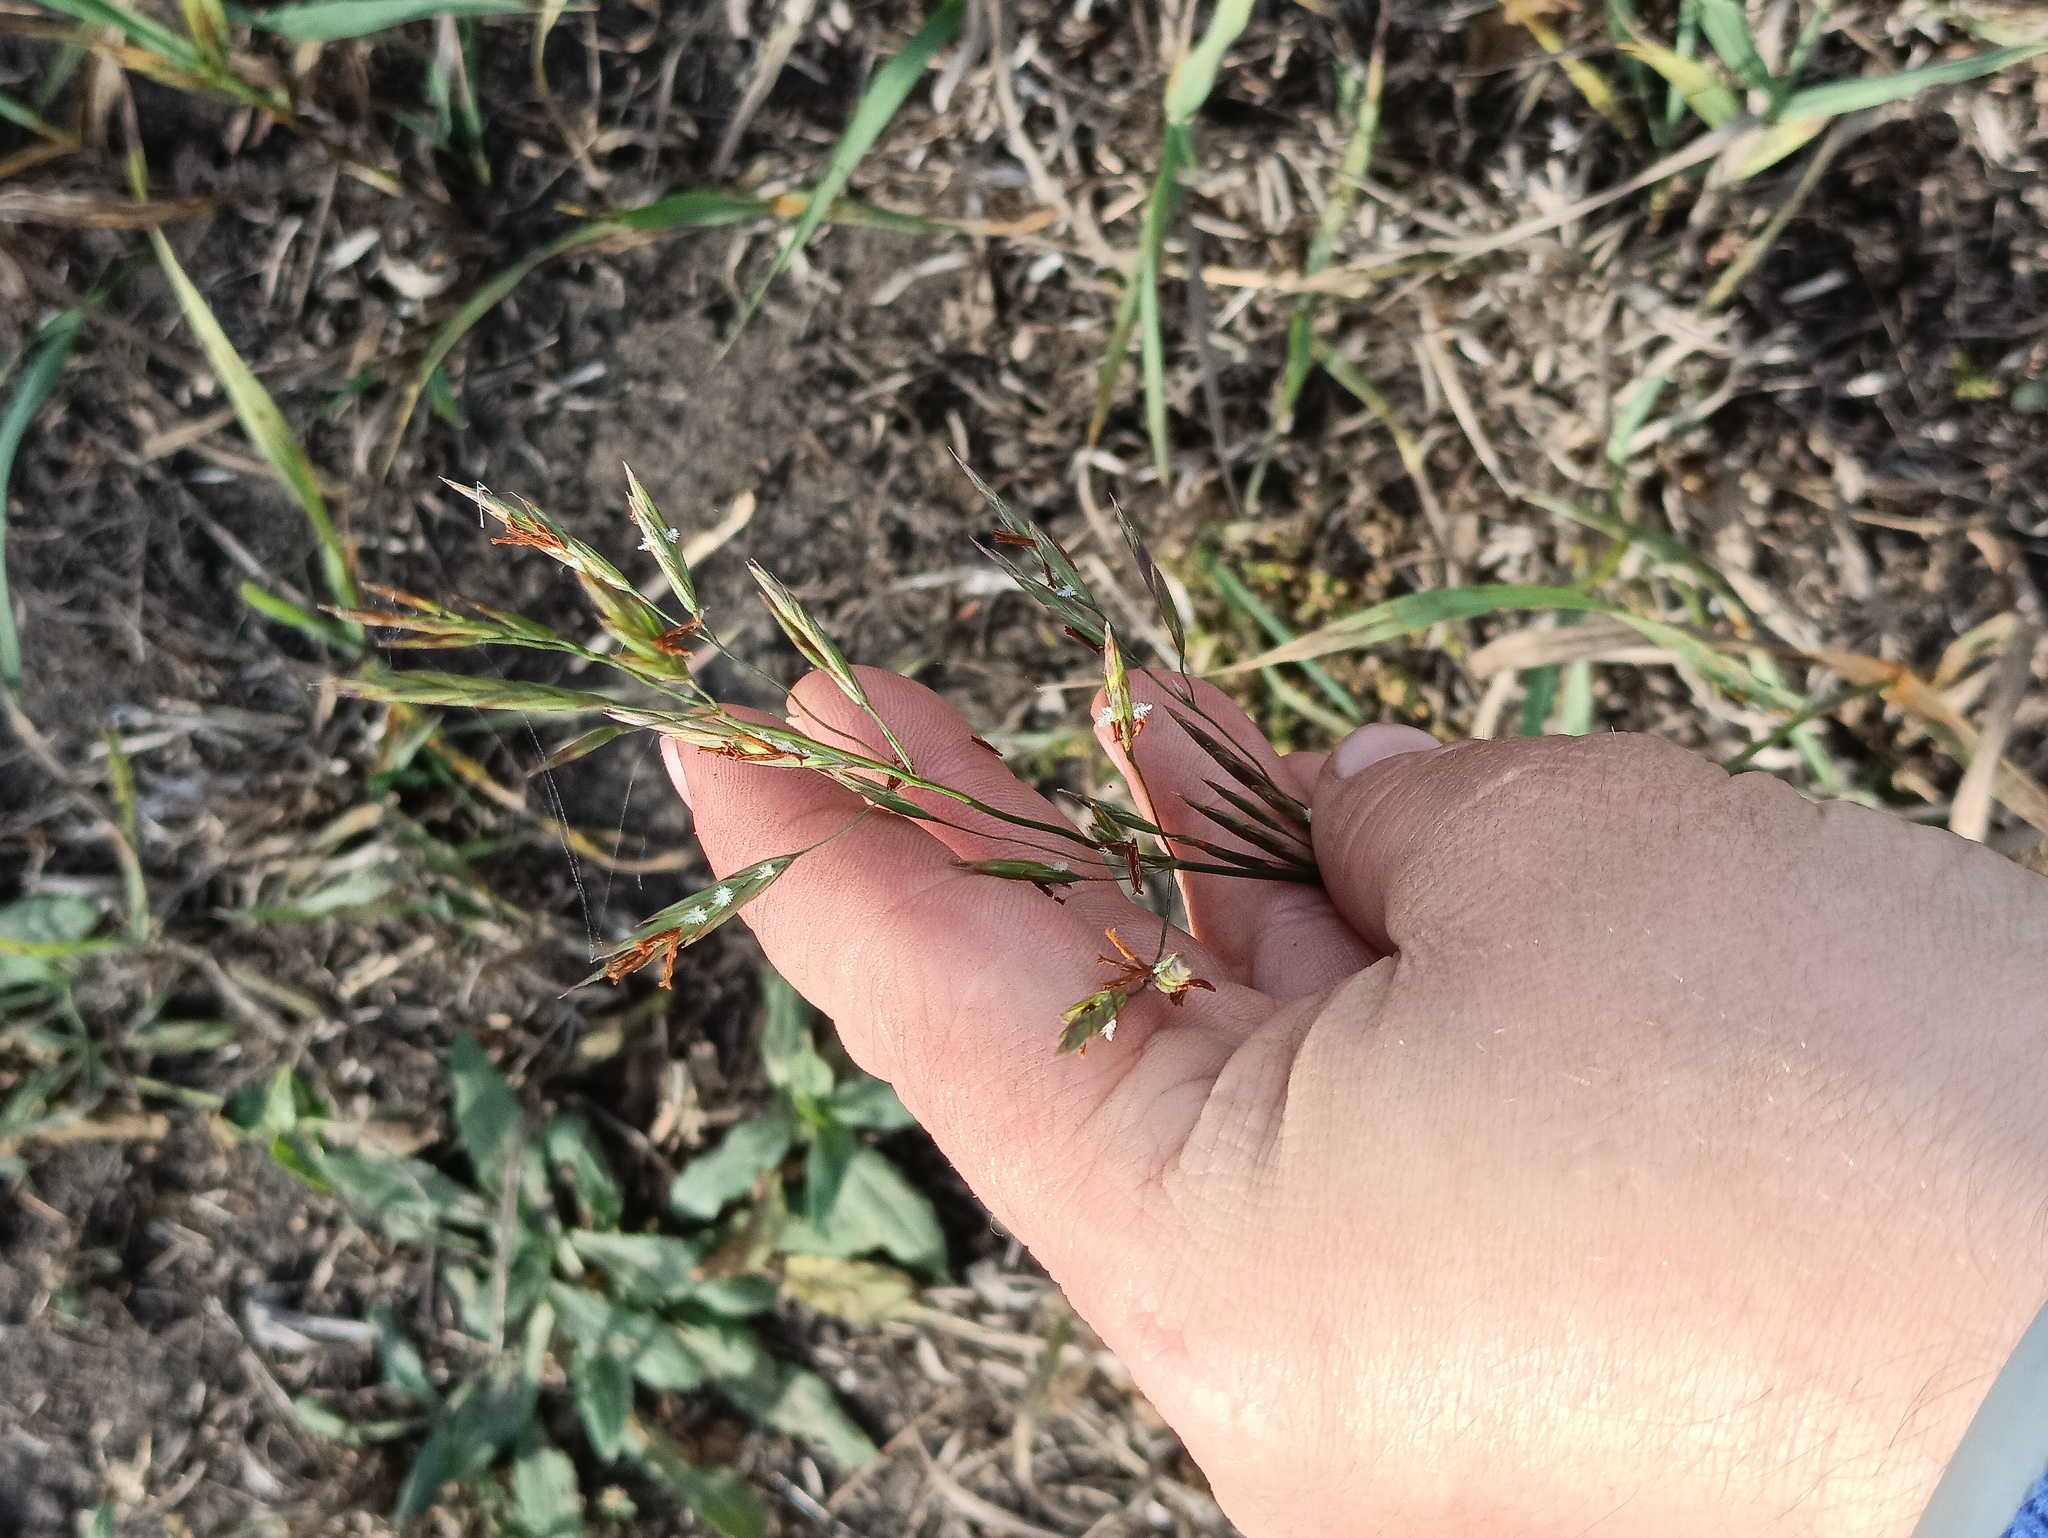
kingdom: Plantae
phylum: Tracheophyta
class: Liliopsida
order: Poales
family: Poaceae
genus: Bromus
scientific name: Bromus inermis
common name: Smooth brome
